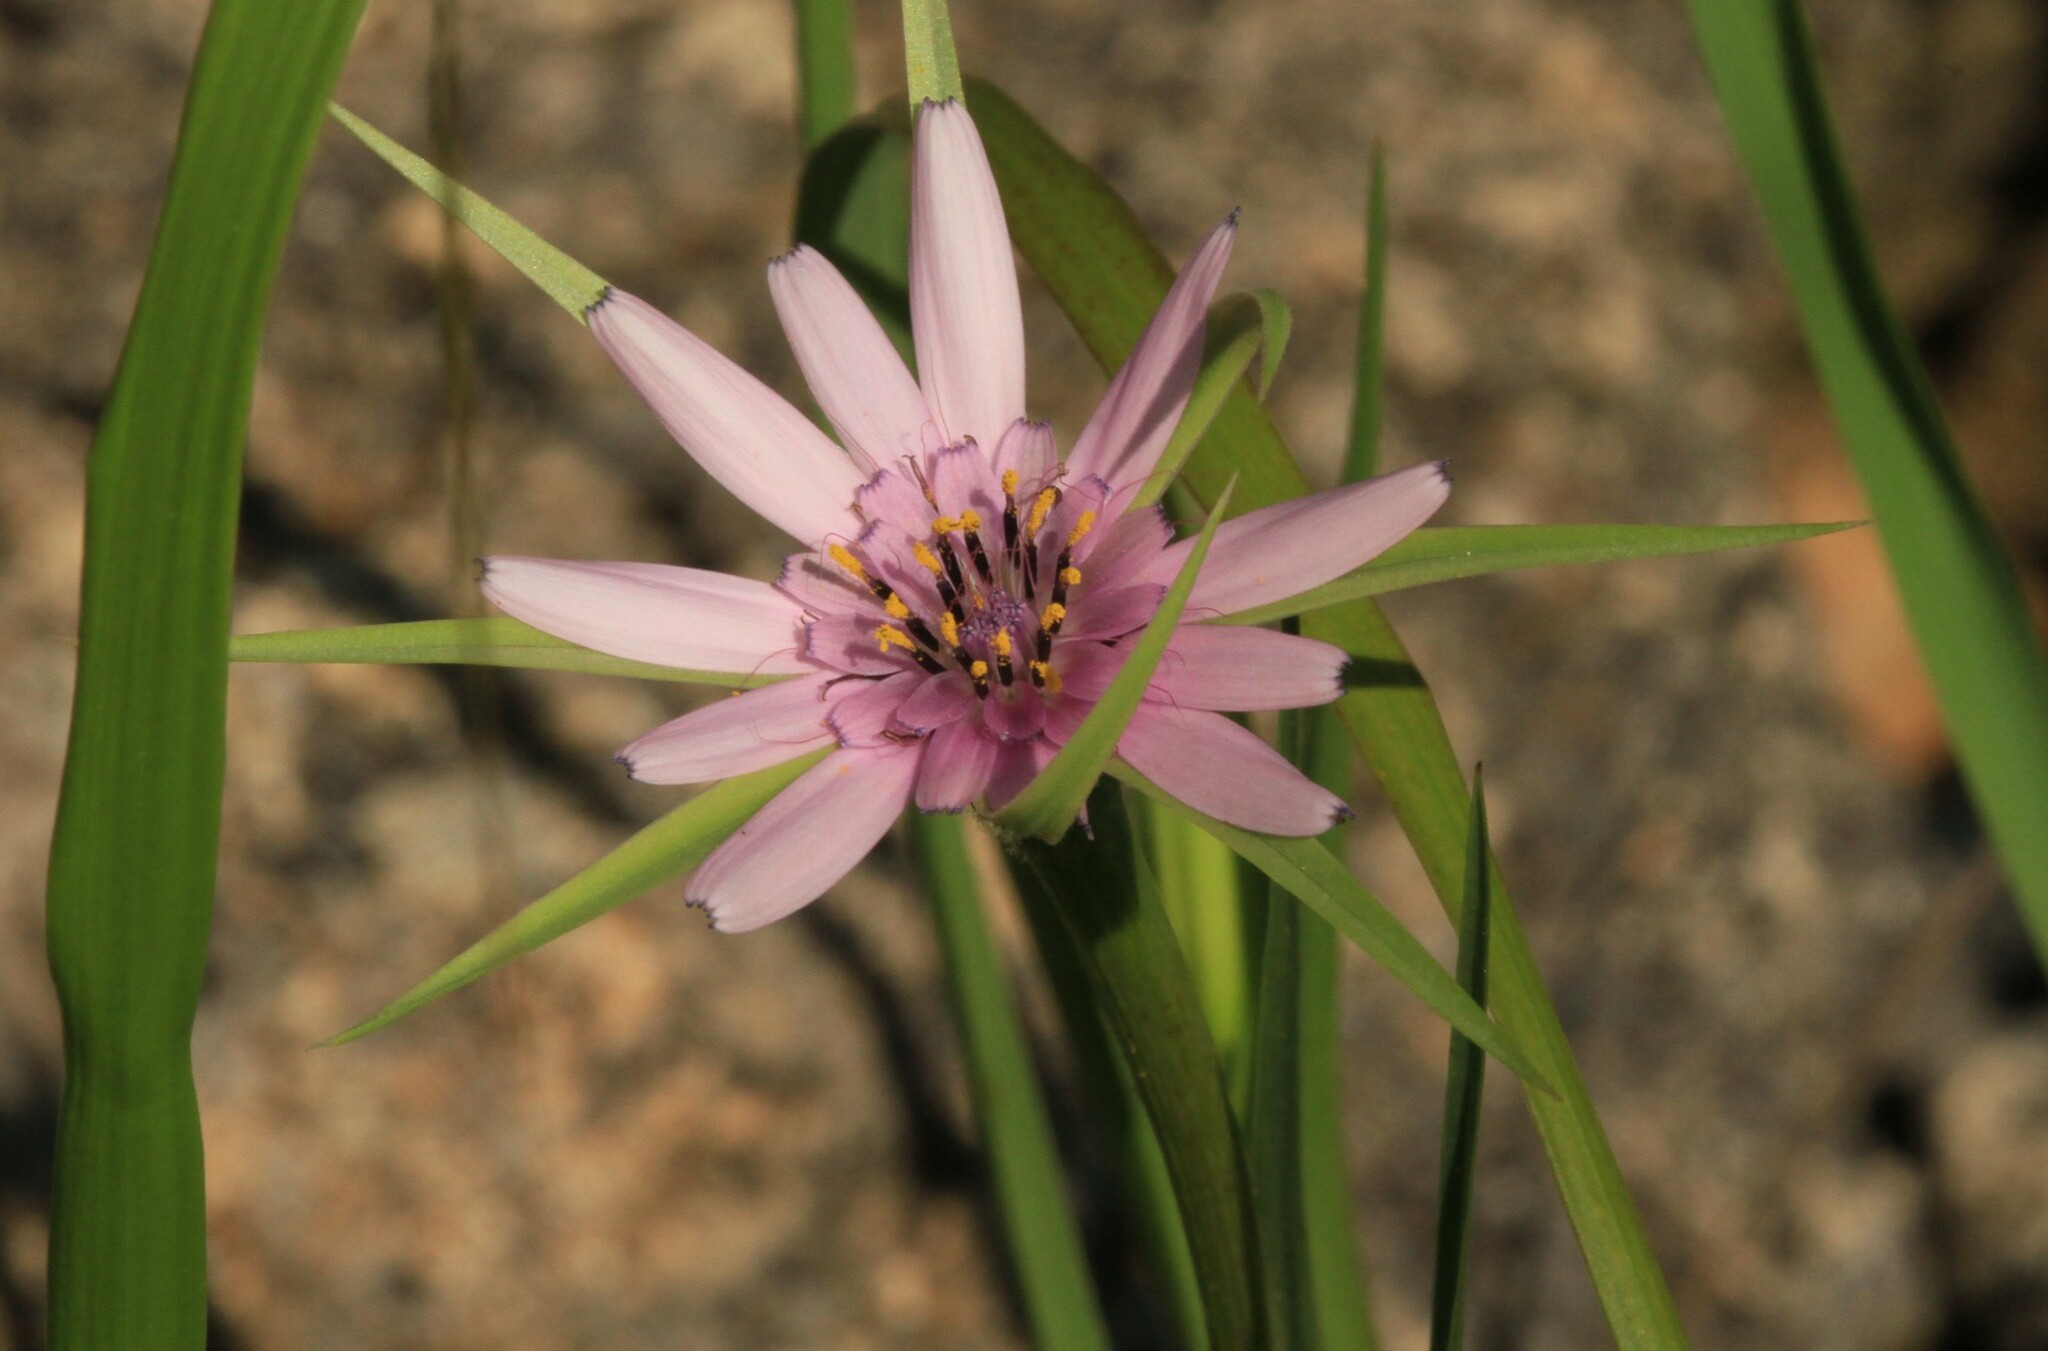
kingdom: Plantae
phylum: Tracheophyta
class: Magnoliopsida
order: Asterales
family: Asteraceae
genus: Geropogon
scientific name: Geropogon hybridus
